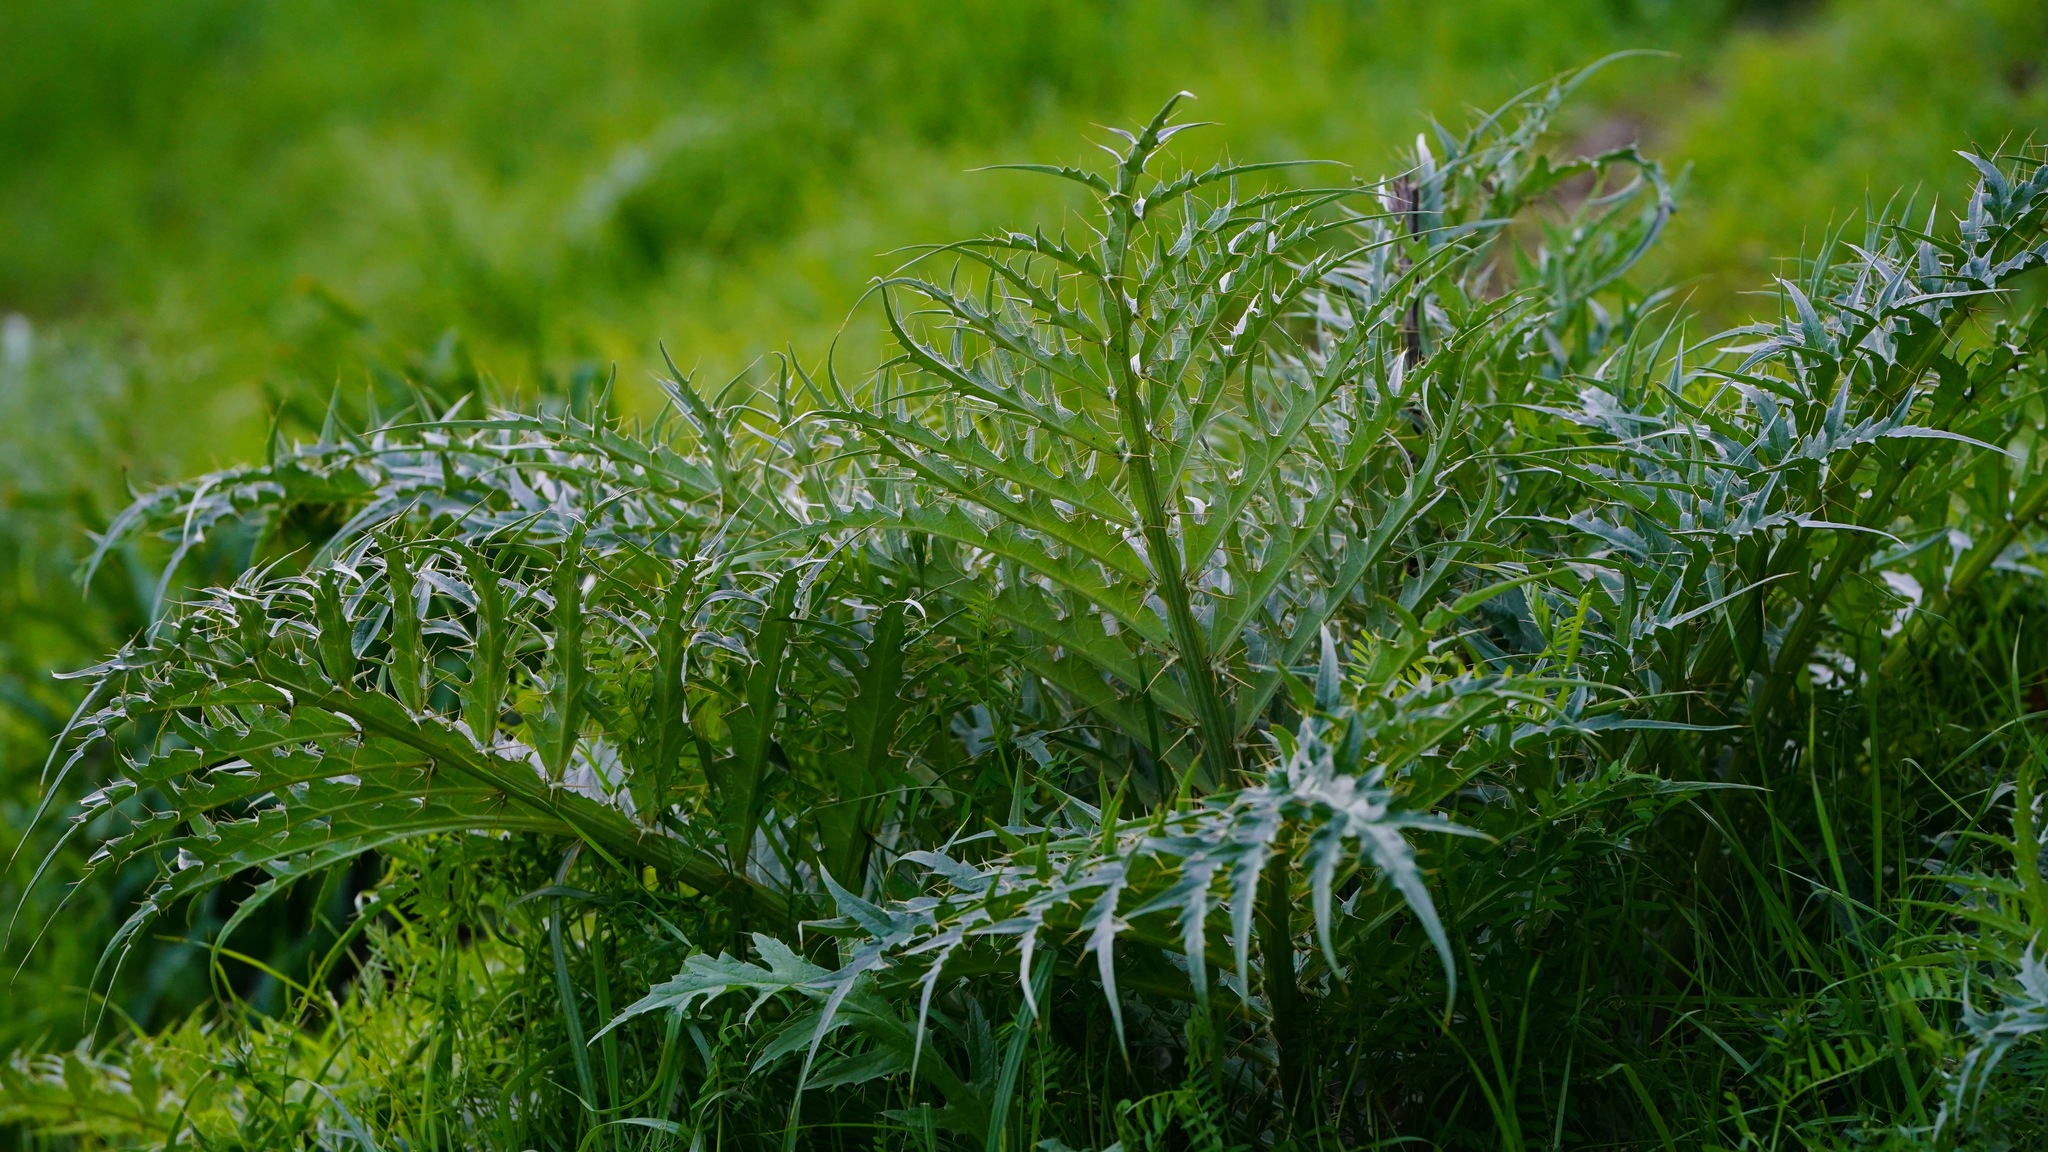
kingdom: Plantae
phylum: Tracheophyta
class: Magnoliopsida
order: Asterales
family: Asteraceae
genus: Cynara
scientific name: Cynara cardunculus
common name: Globe artichoke
